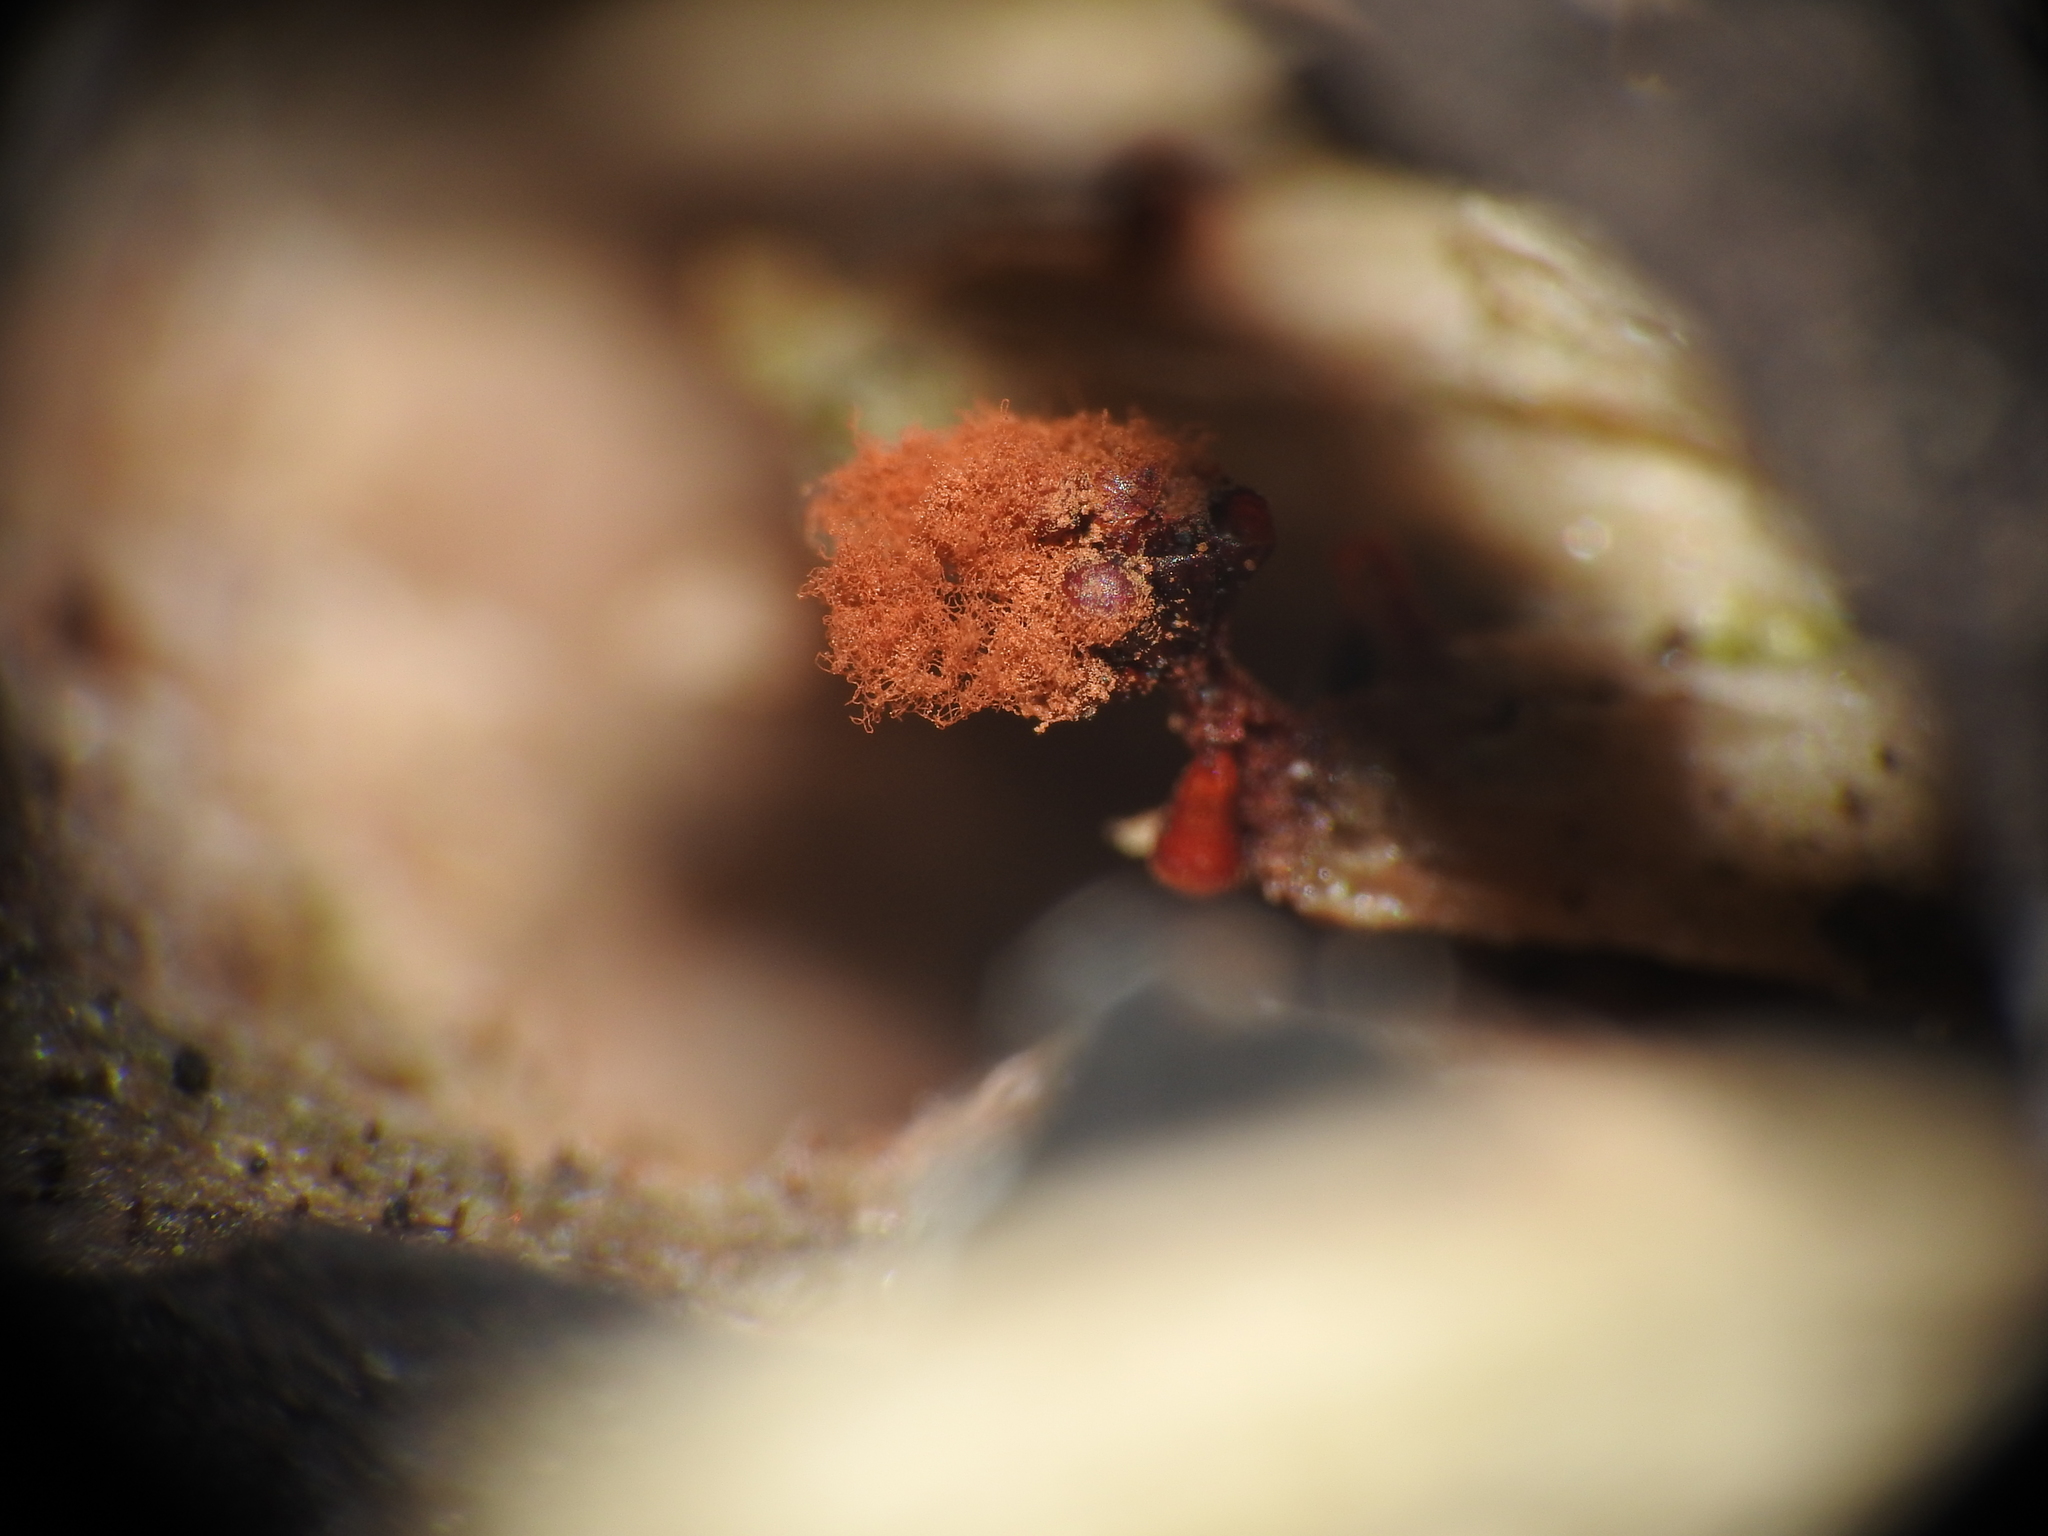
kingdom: Protozoa
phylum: Mycetozoa
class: Myxomycetes
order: Trichiales
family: Trichiaceae
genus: Metatrichia
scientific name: Metatrichia vesparia
